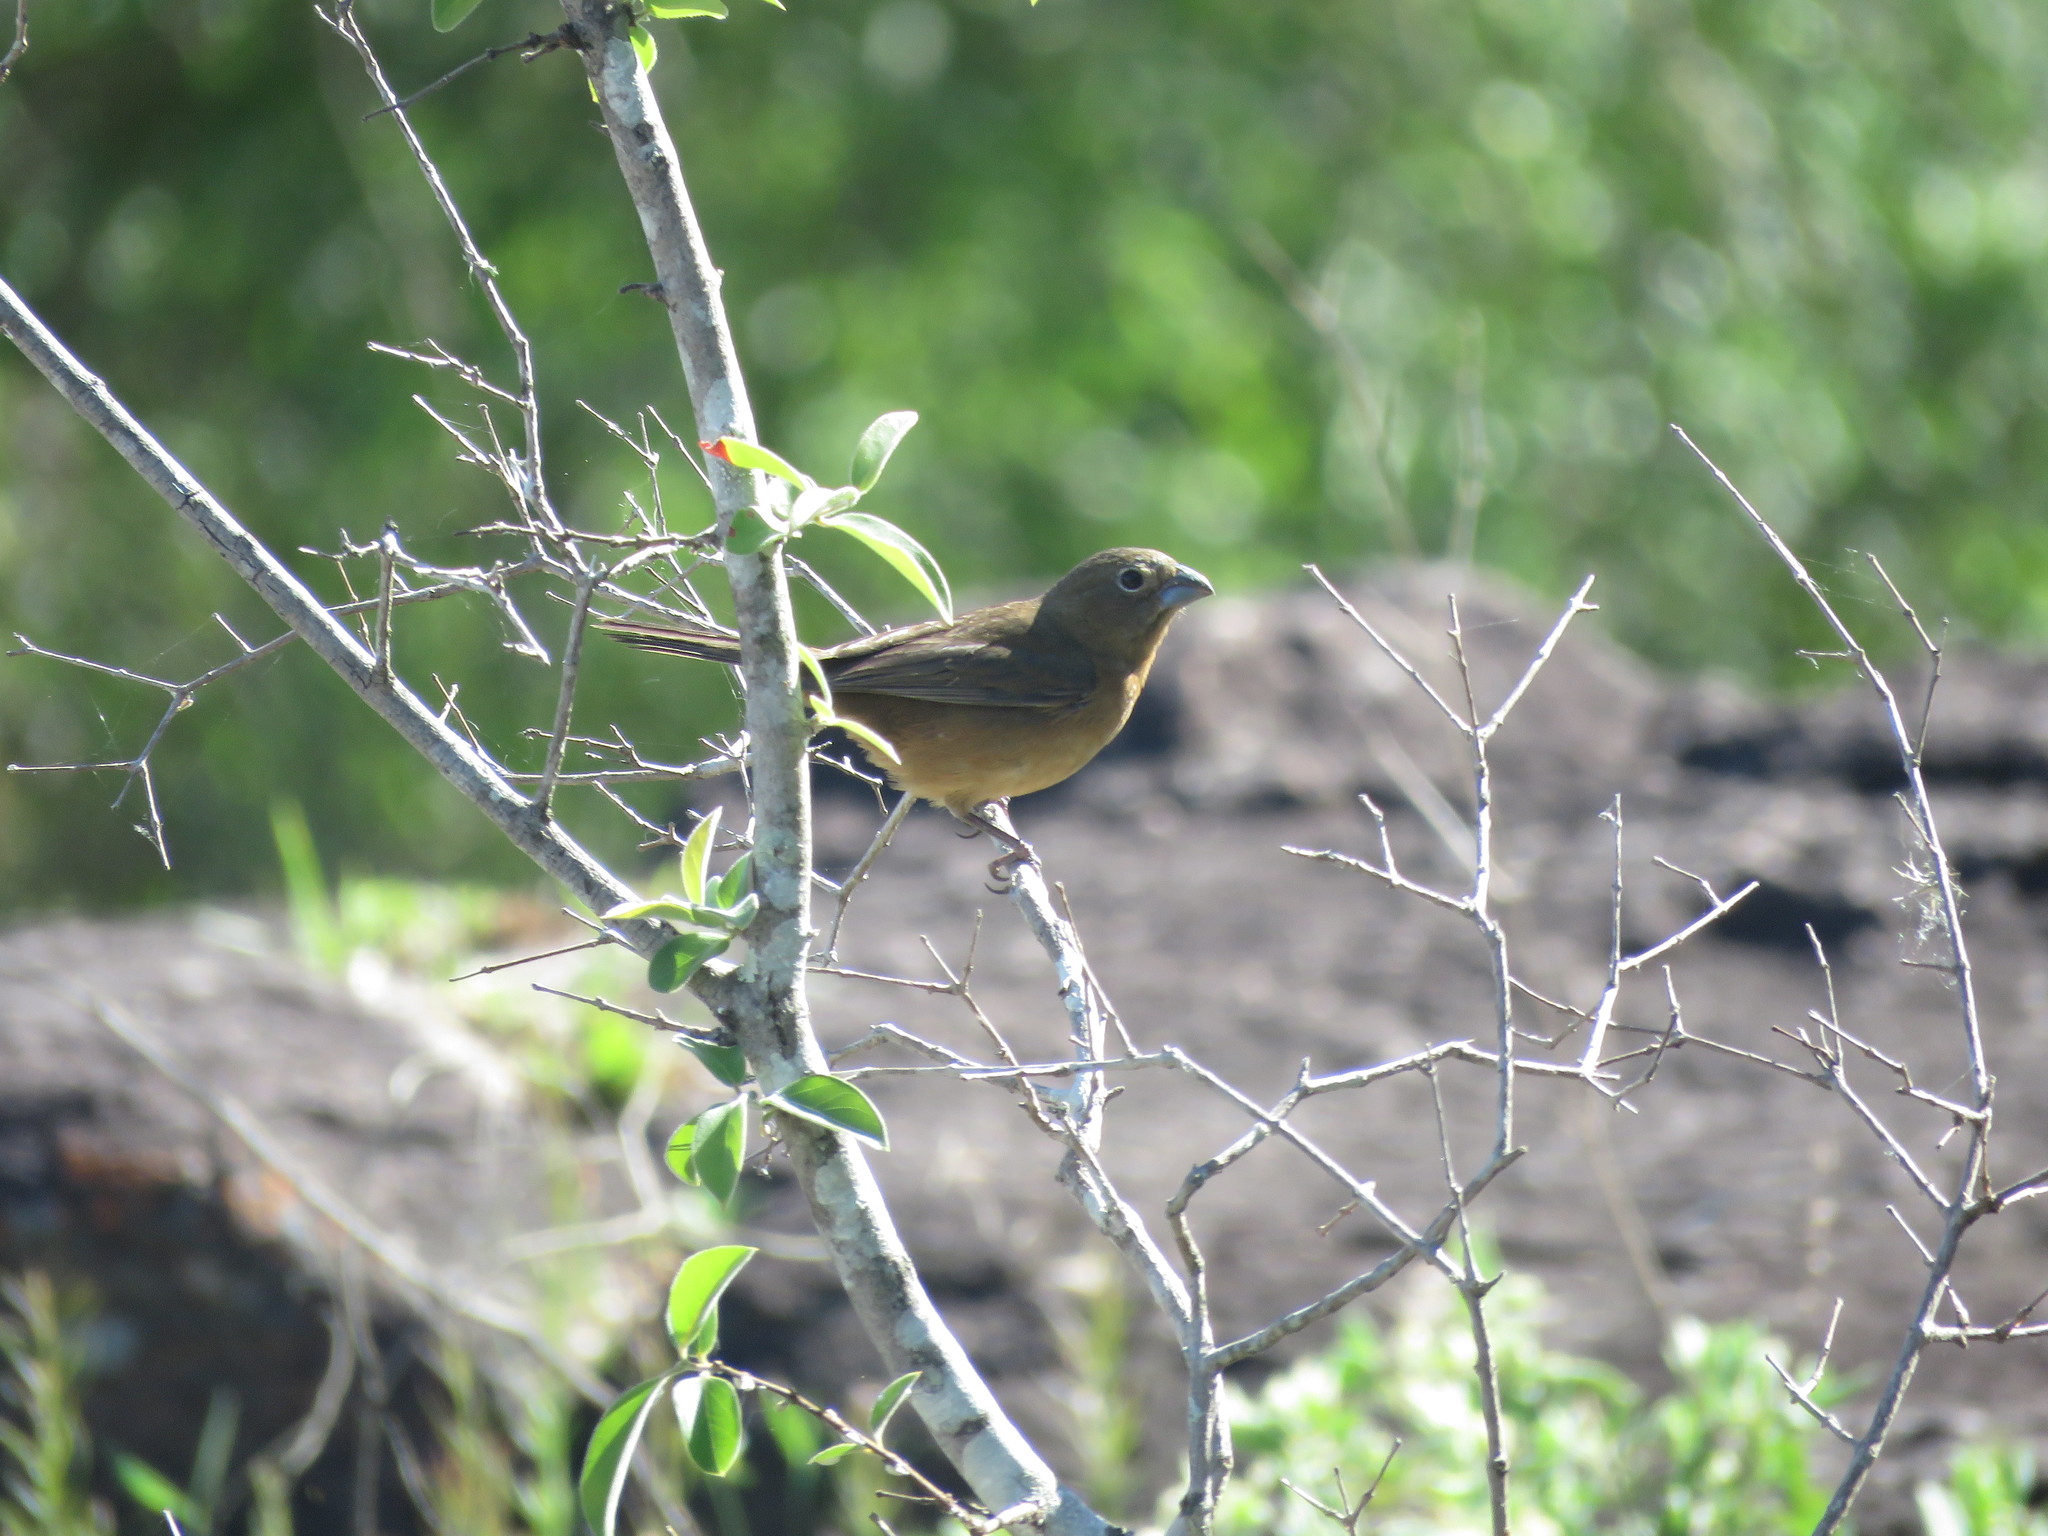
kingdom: Animalia
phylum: Chordata
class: Aves
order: Passeriformes
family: Cardinalidae
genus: Cyanoloxia
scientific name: Cyanoloxia glaucocaerulea
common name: Glaucous-blue grosbeak
